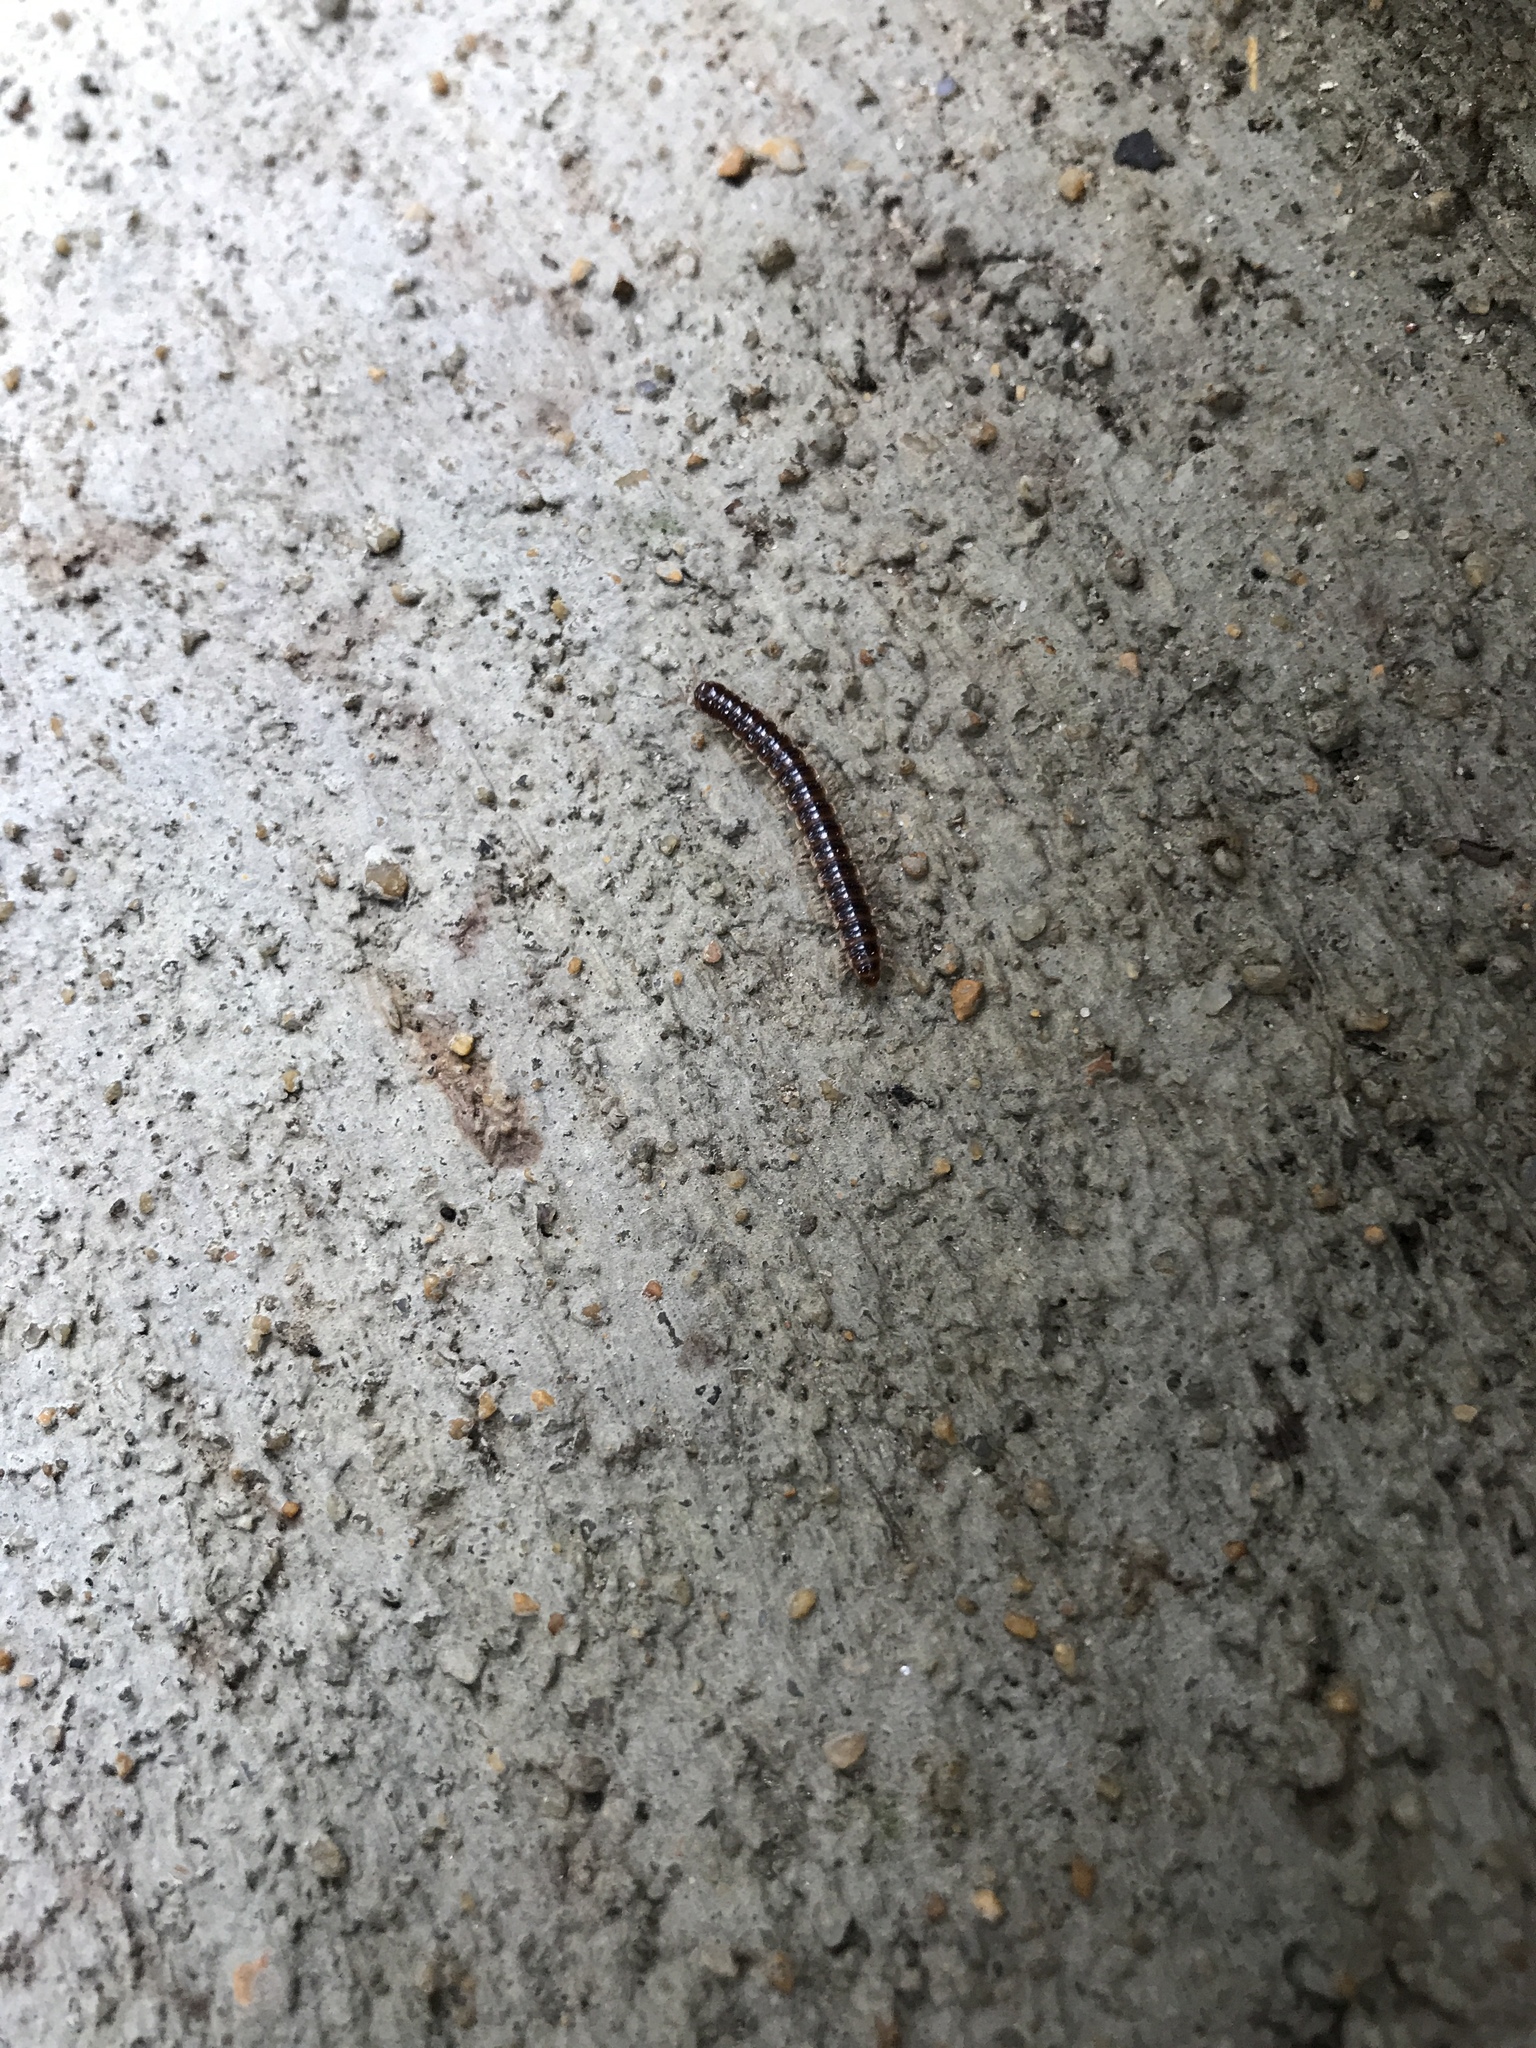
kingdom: Animalia
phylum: Arthropoda
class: Diplopoda
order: Polydesmida
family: Paradoxosomatidae
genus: Oxidus
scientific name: Oxidus gracilis
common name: Greenhouse millipede
